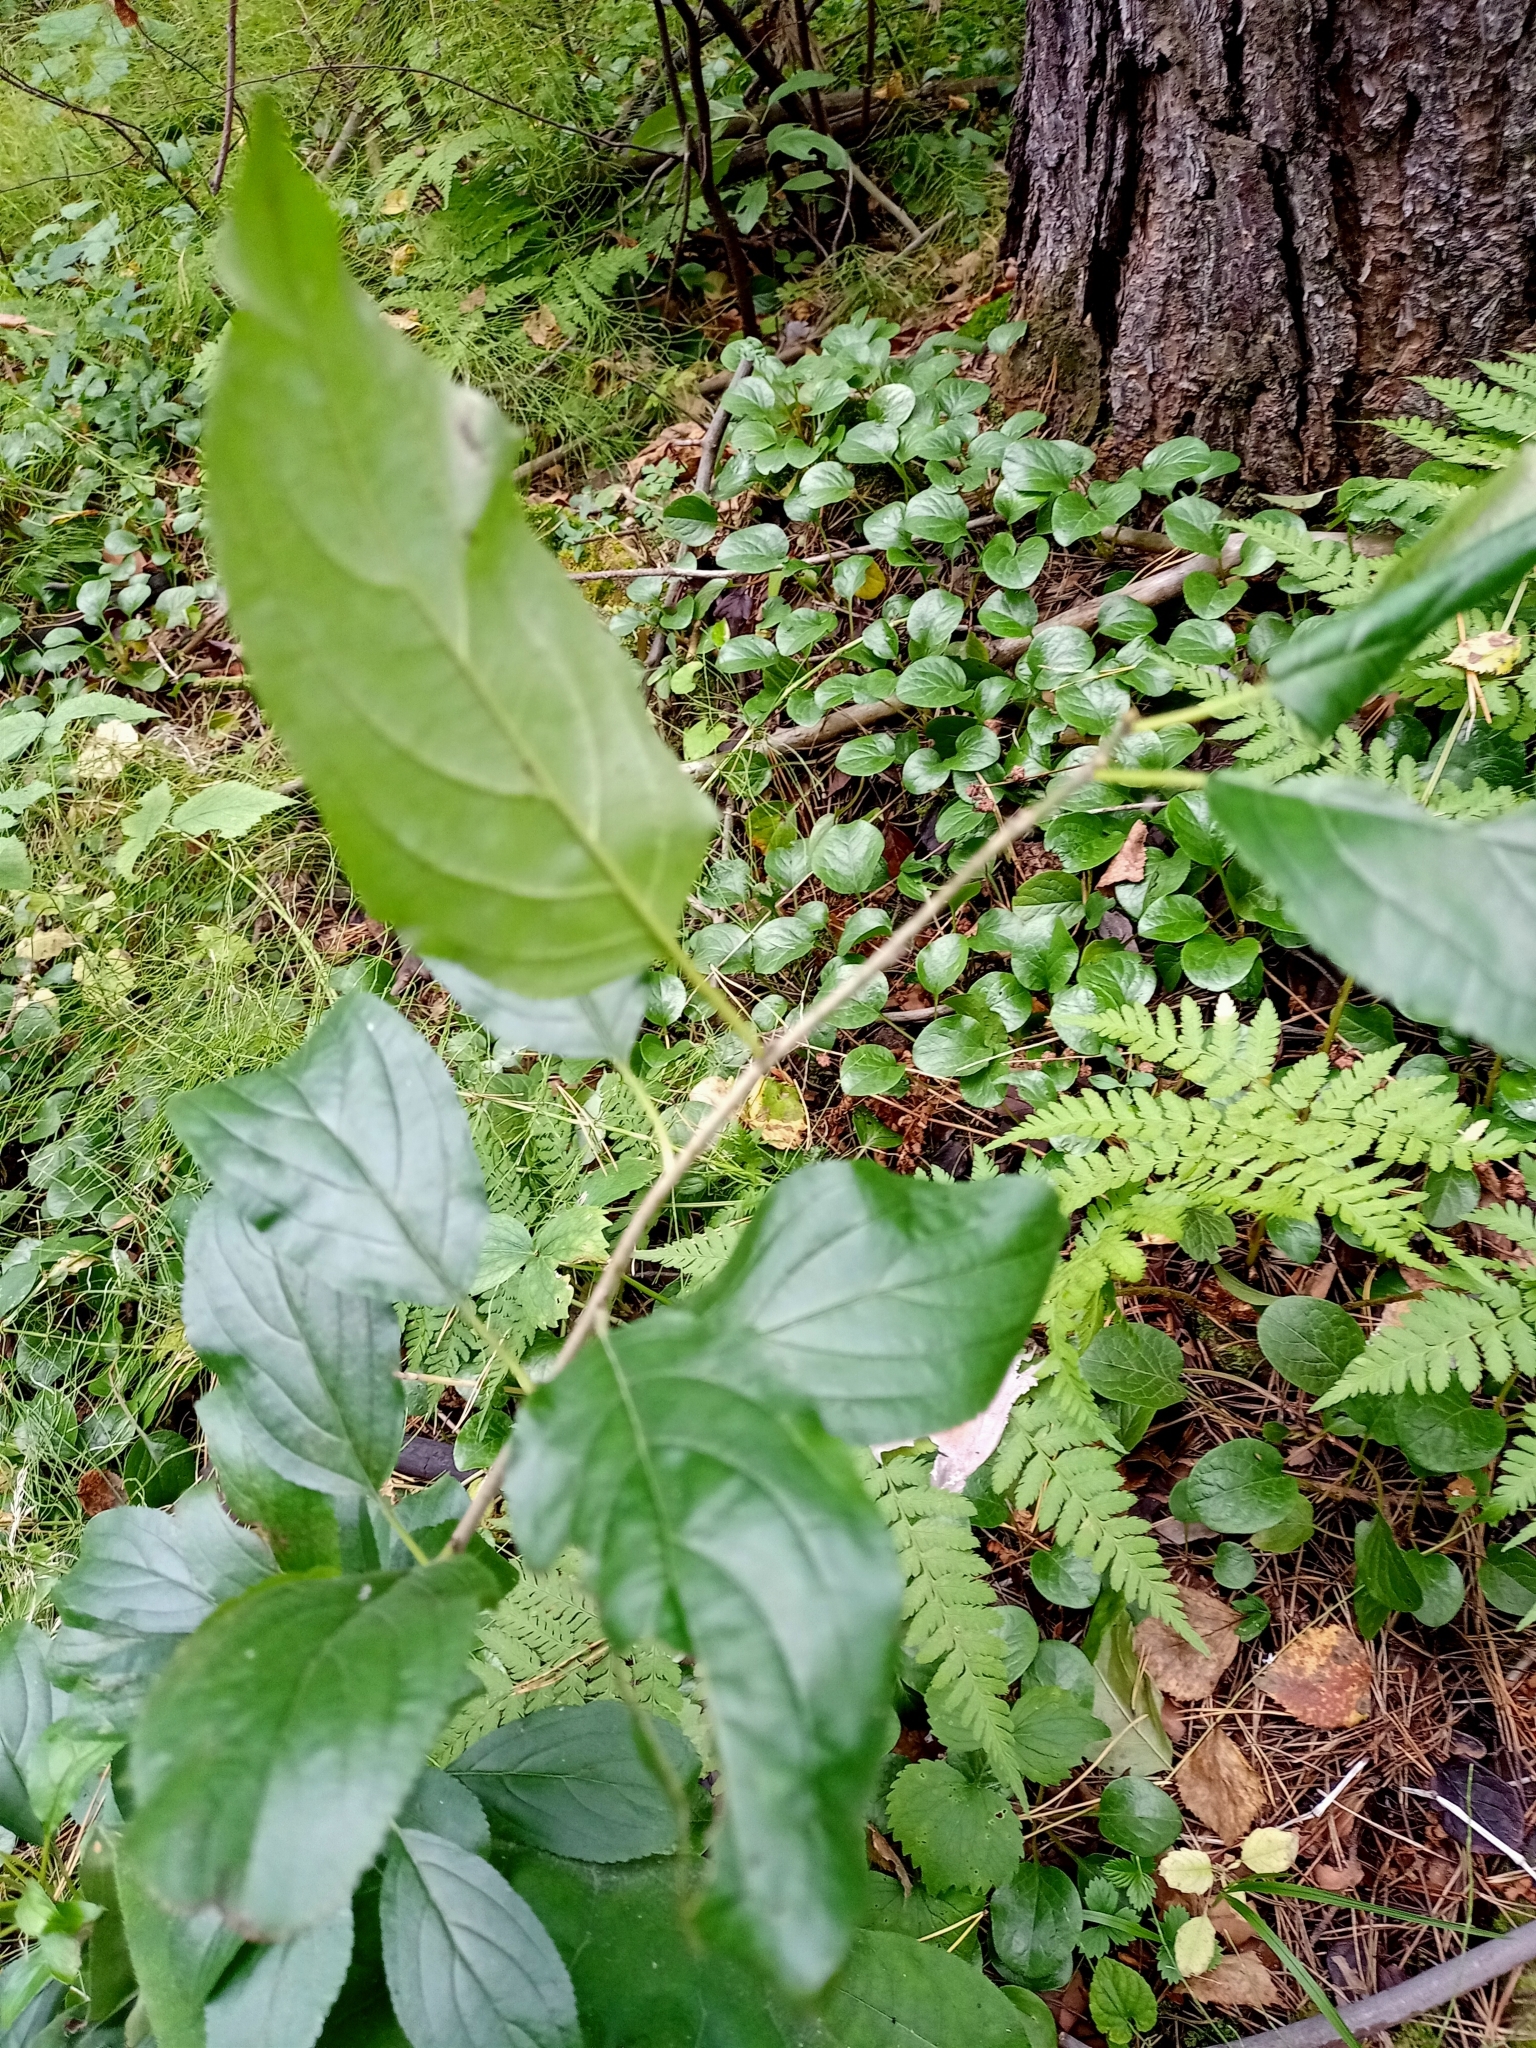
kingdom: Plantae
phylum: Tracheophyta
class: Magnoliopsida
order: Rosales
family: Rhamnaceae
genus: Rhamnus
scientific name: Rhamnus cathartica
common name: Common buckthorn
